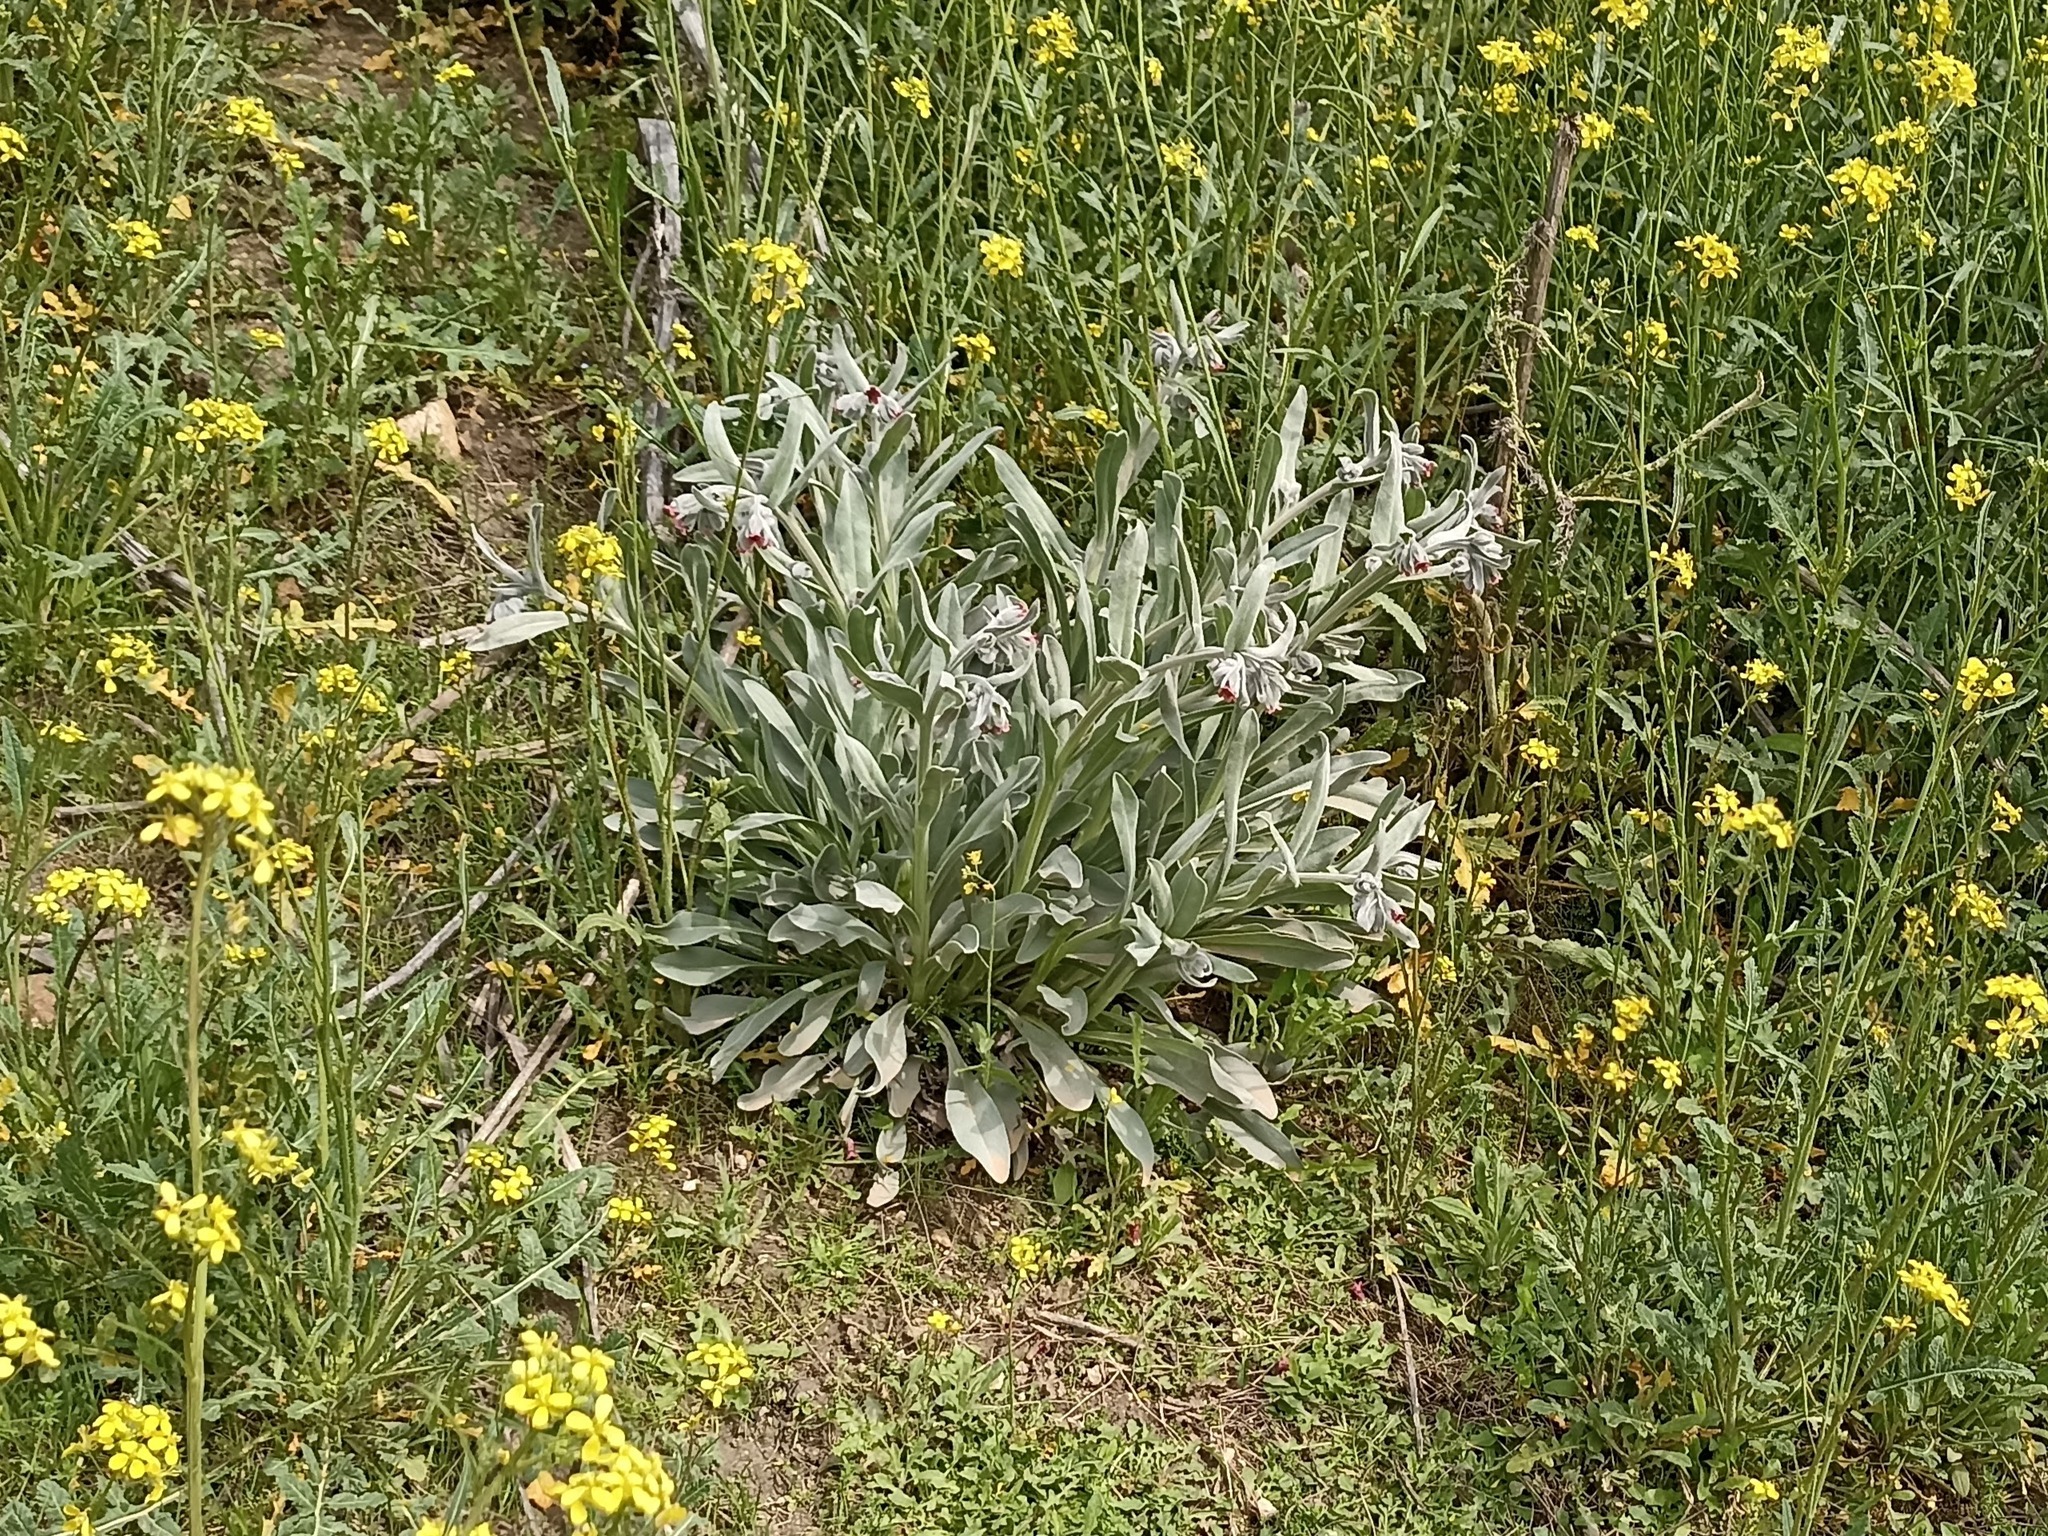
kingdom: Plantae
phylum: Tracheophyta
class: Magnoliopsida
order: Boraginales
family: Boraginaceae
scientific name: Boraginaceae
